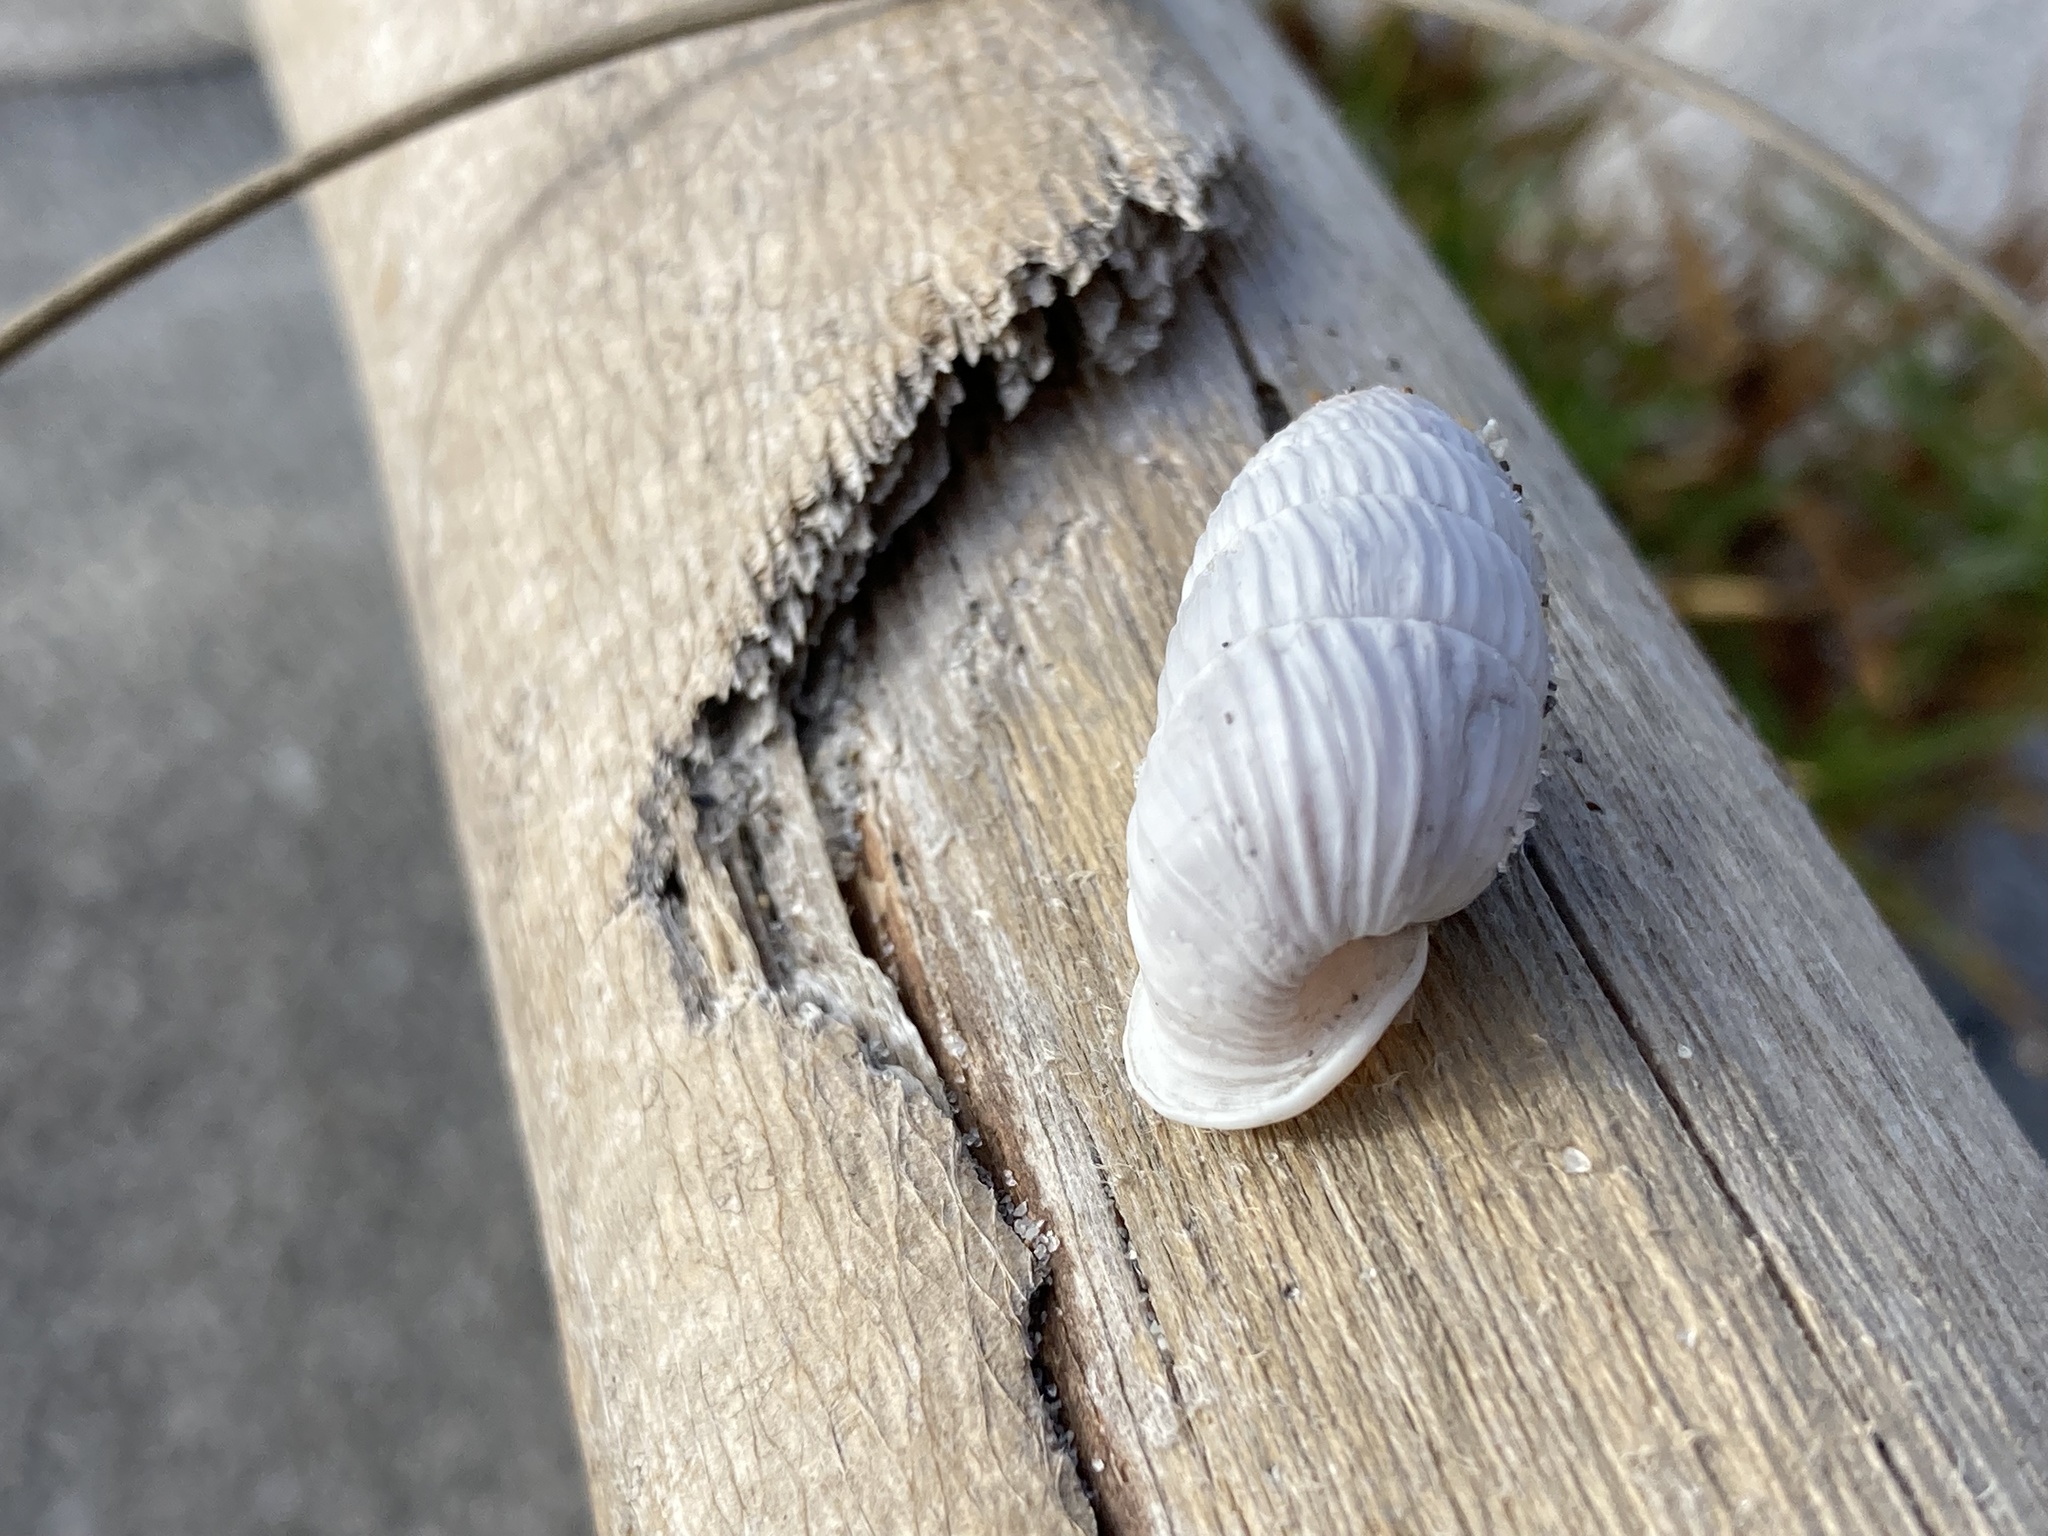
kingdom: Animalia
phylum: Mollusca
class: Gastropoda
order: Stylommatophora
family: Cerionidae
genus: Cerion
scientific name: Cerion
